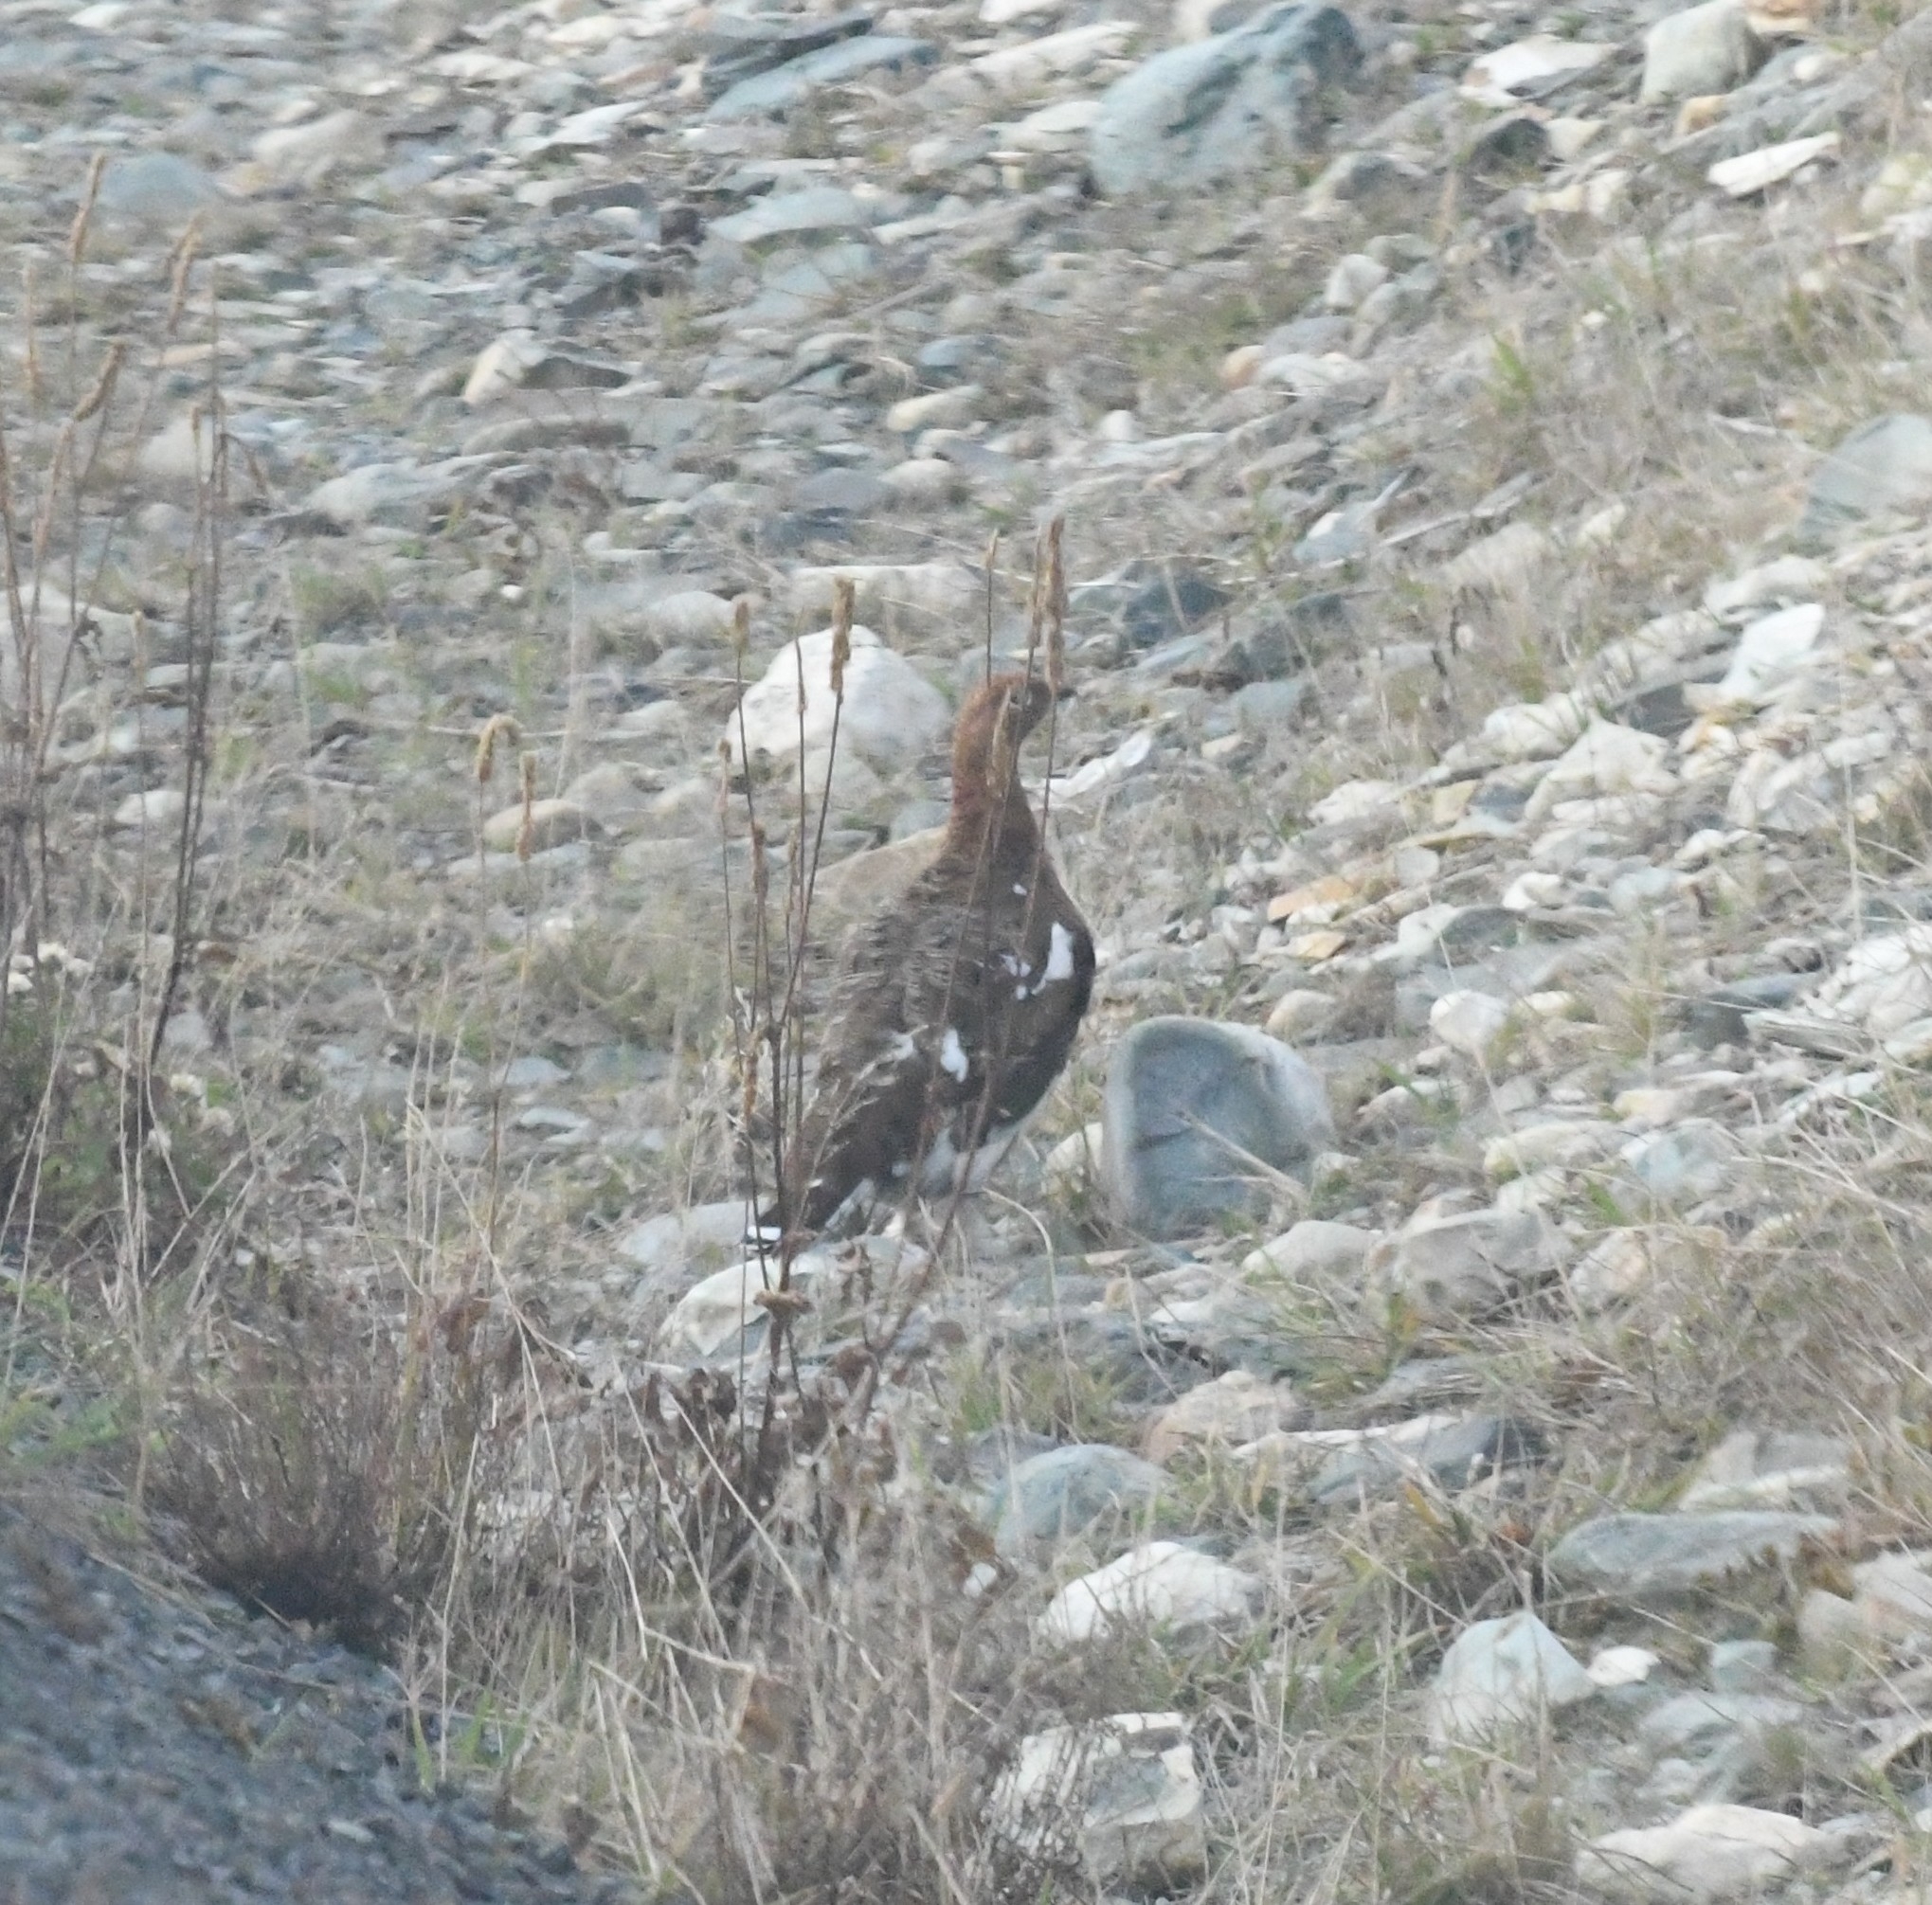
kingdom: Animalia
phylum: Chordata
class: Aves
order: Galliformes
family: Phasianidae
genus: Lagopus
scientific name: Lagopus lagopus
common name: Willow ptarmigan
